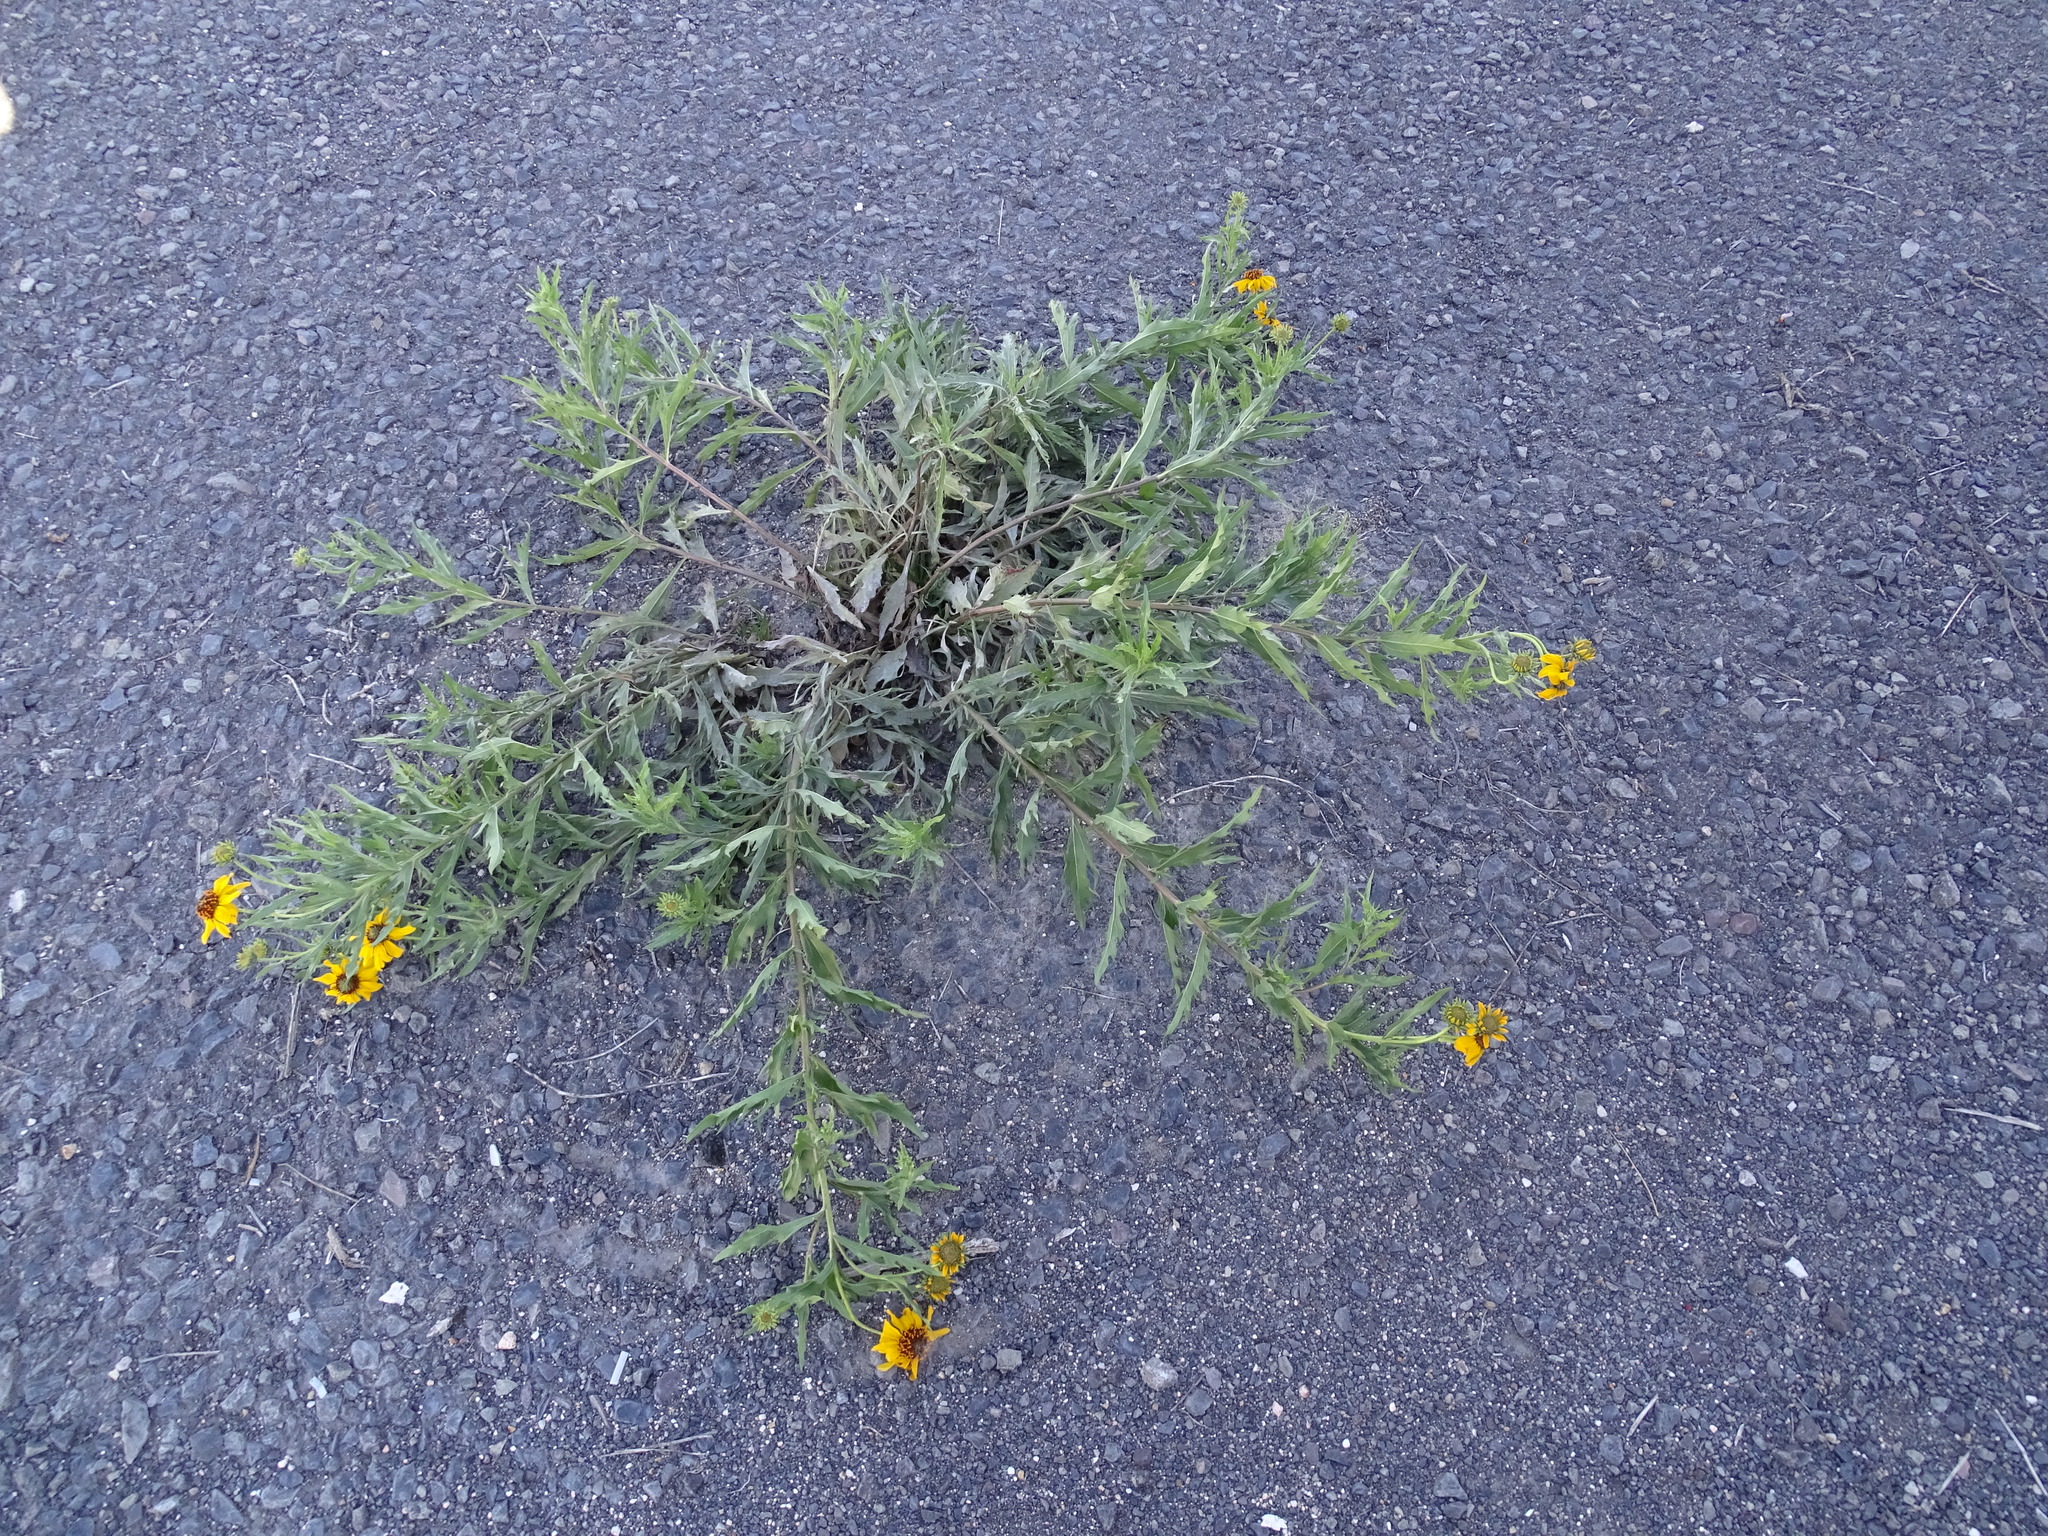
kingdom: Plantae
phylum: Tracheophyta
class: Magnoliopsida
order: Asterales
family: Asteraceae
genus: Helianthus
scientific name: Helianthus laciniatus
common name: Jagged-edge sunflower
